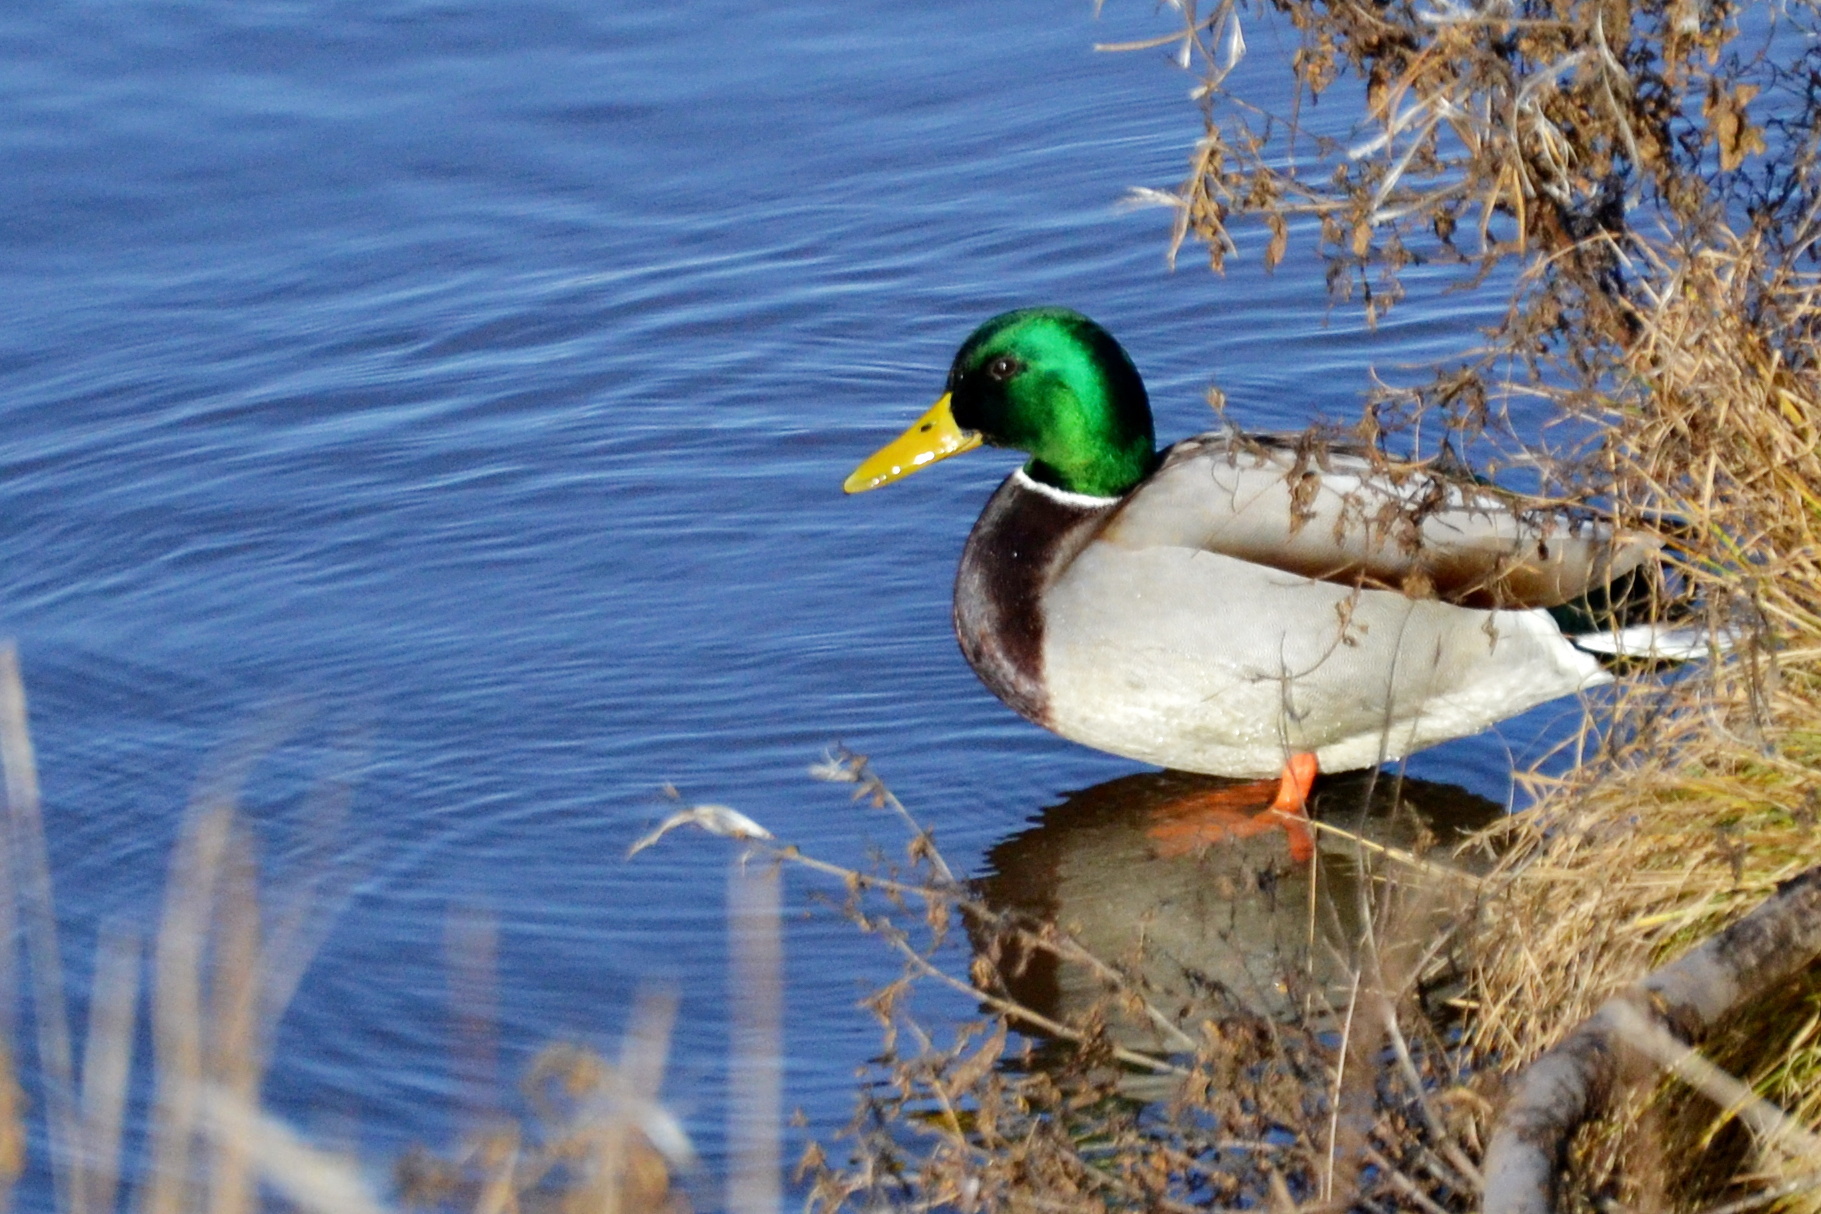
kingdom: Animalia
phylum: Chordata
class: Aves
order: Anseriformes
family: Anatidae
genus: Anas
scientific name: Anas platyrhynchos
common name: Mallard
